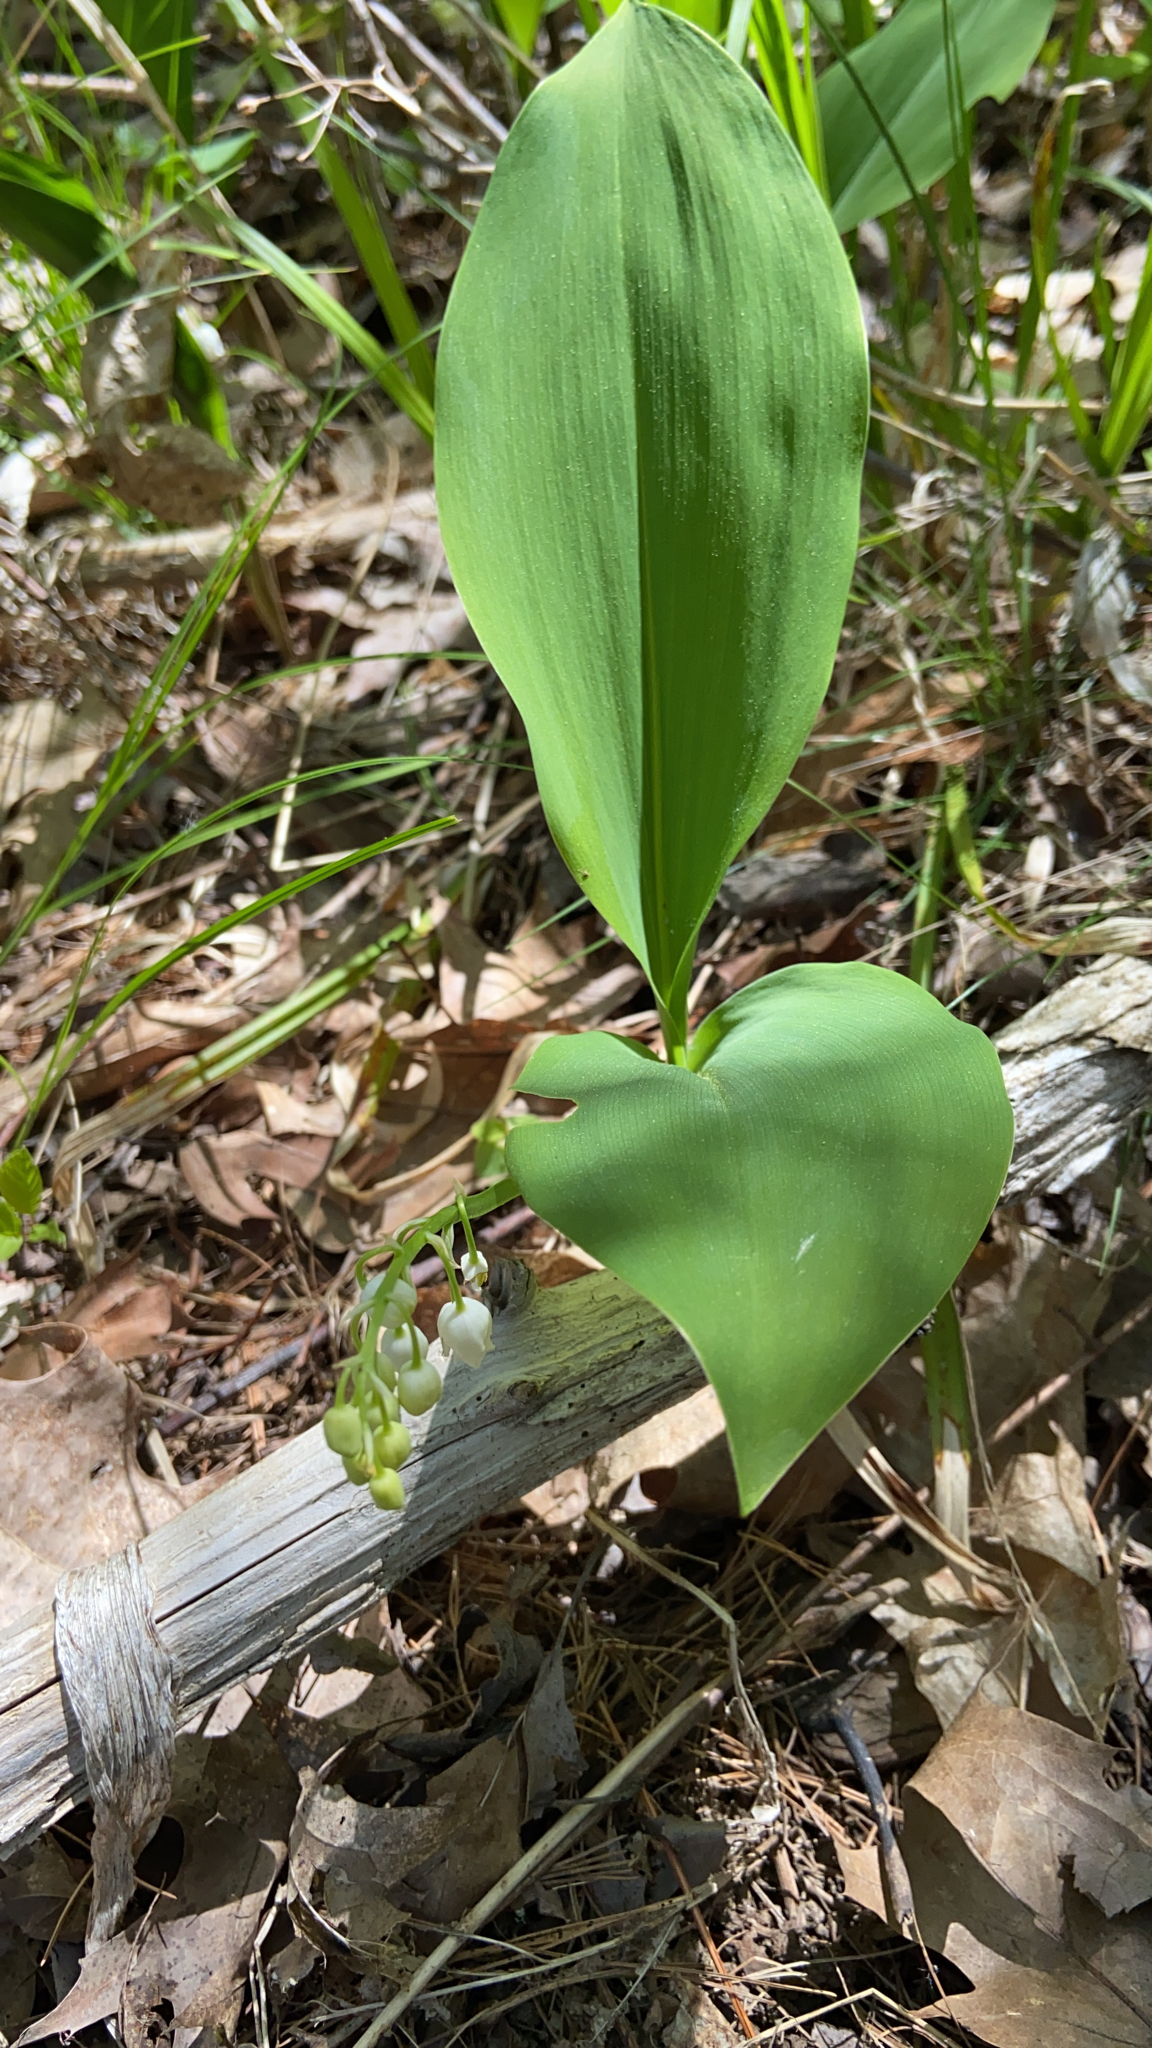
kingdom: Plantae
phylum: Tracheophyta
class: Liliopsida
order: Asparagales
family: Asparagaceae
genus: Convallaria
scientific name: Convallaria majalis
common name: Lily-of-the-valley
